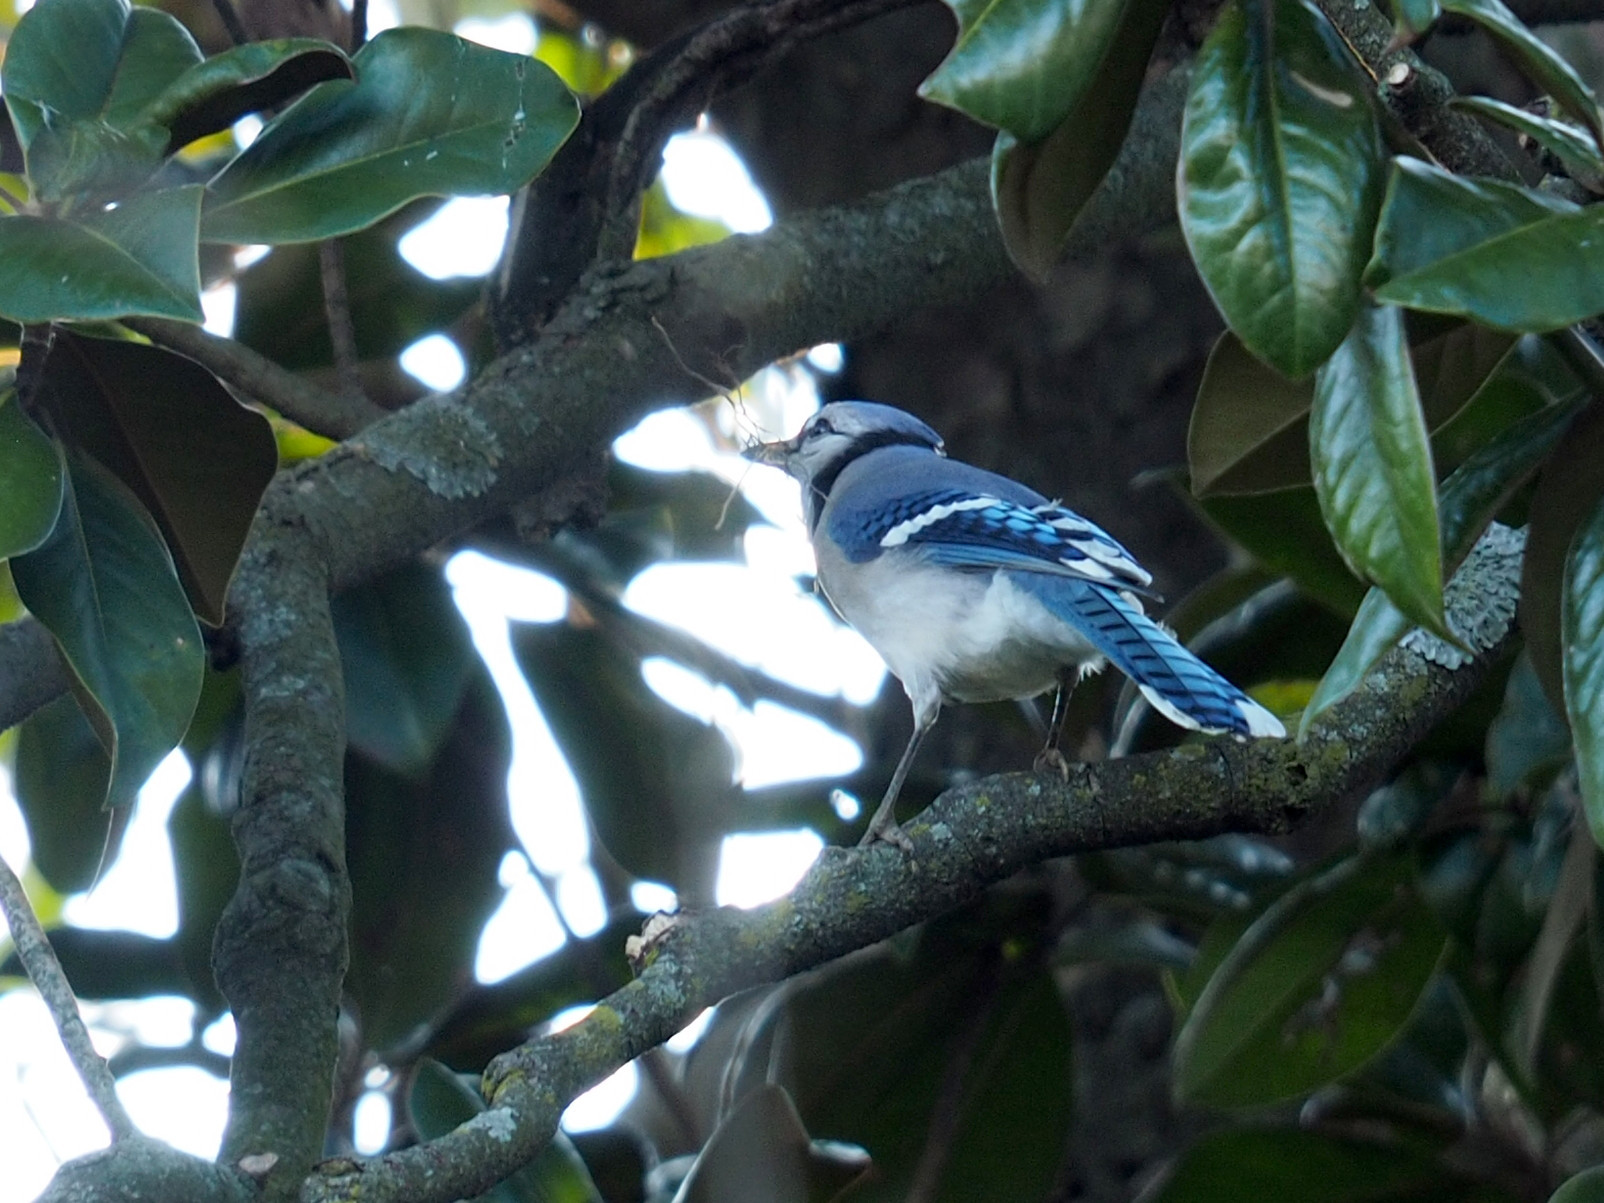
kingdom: Animalia
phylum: Chordata
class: Aves
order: Passeriformes
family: Corvidae
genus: Cyanocitta
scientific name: Cyanocitta cristata
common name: Blue jay
